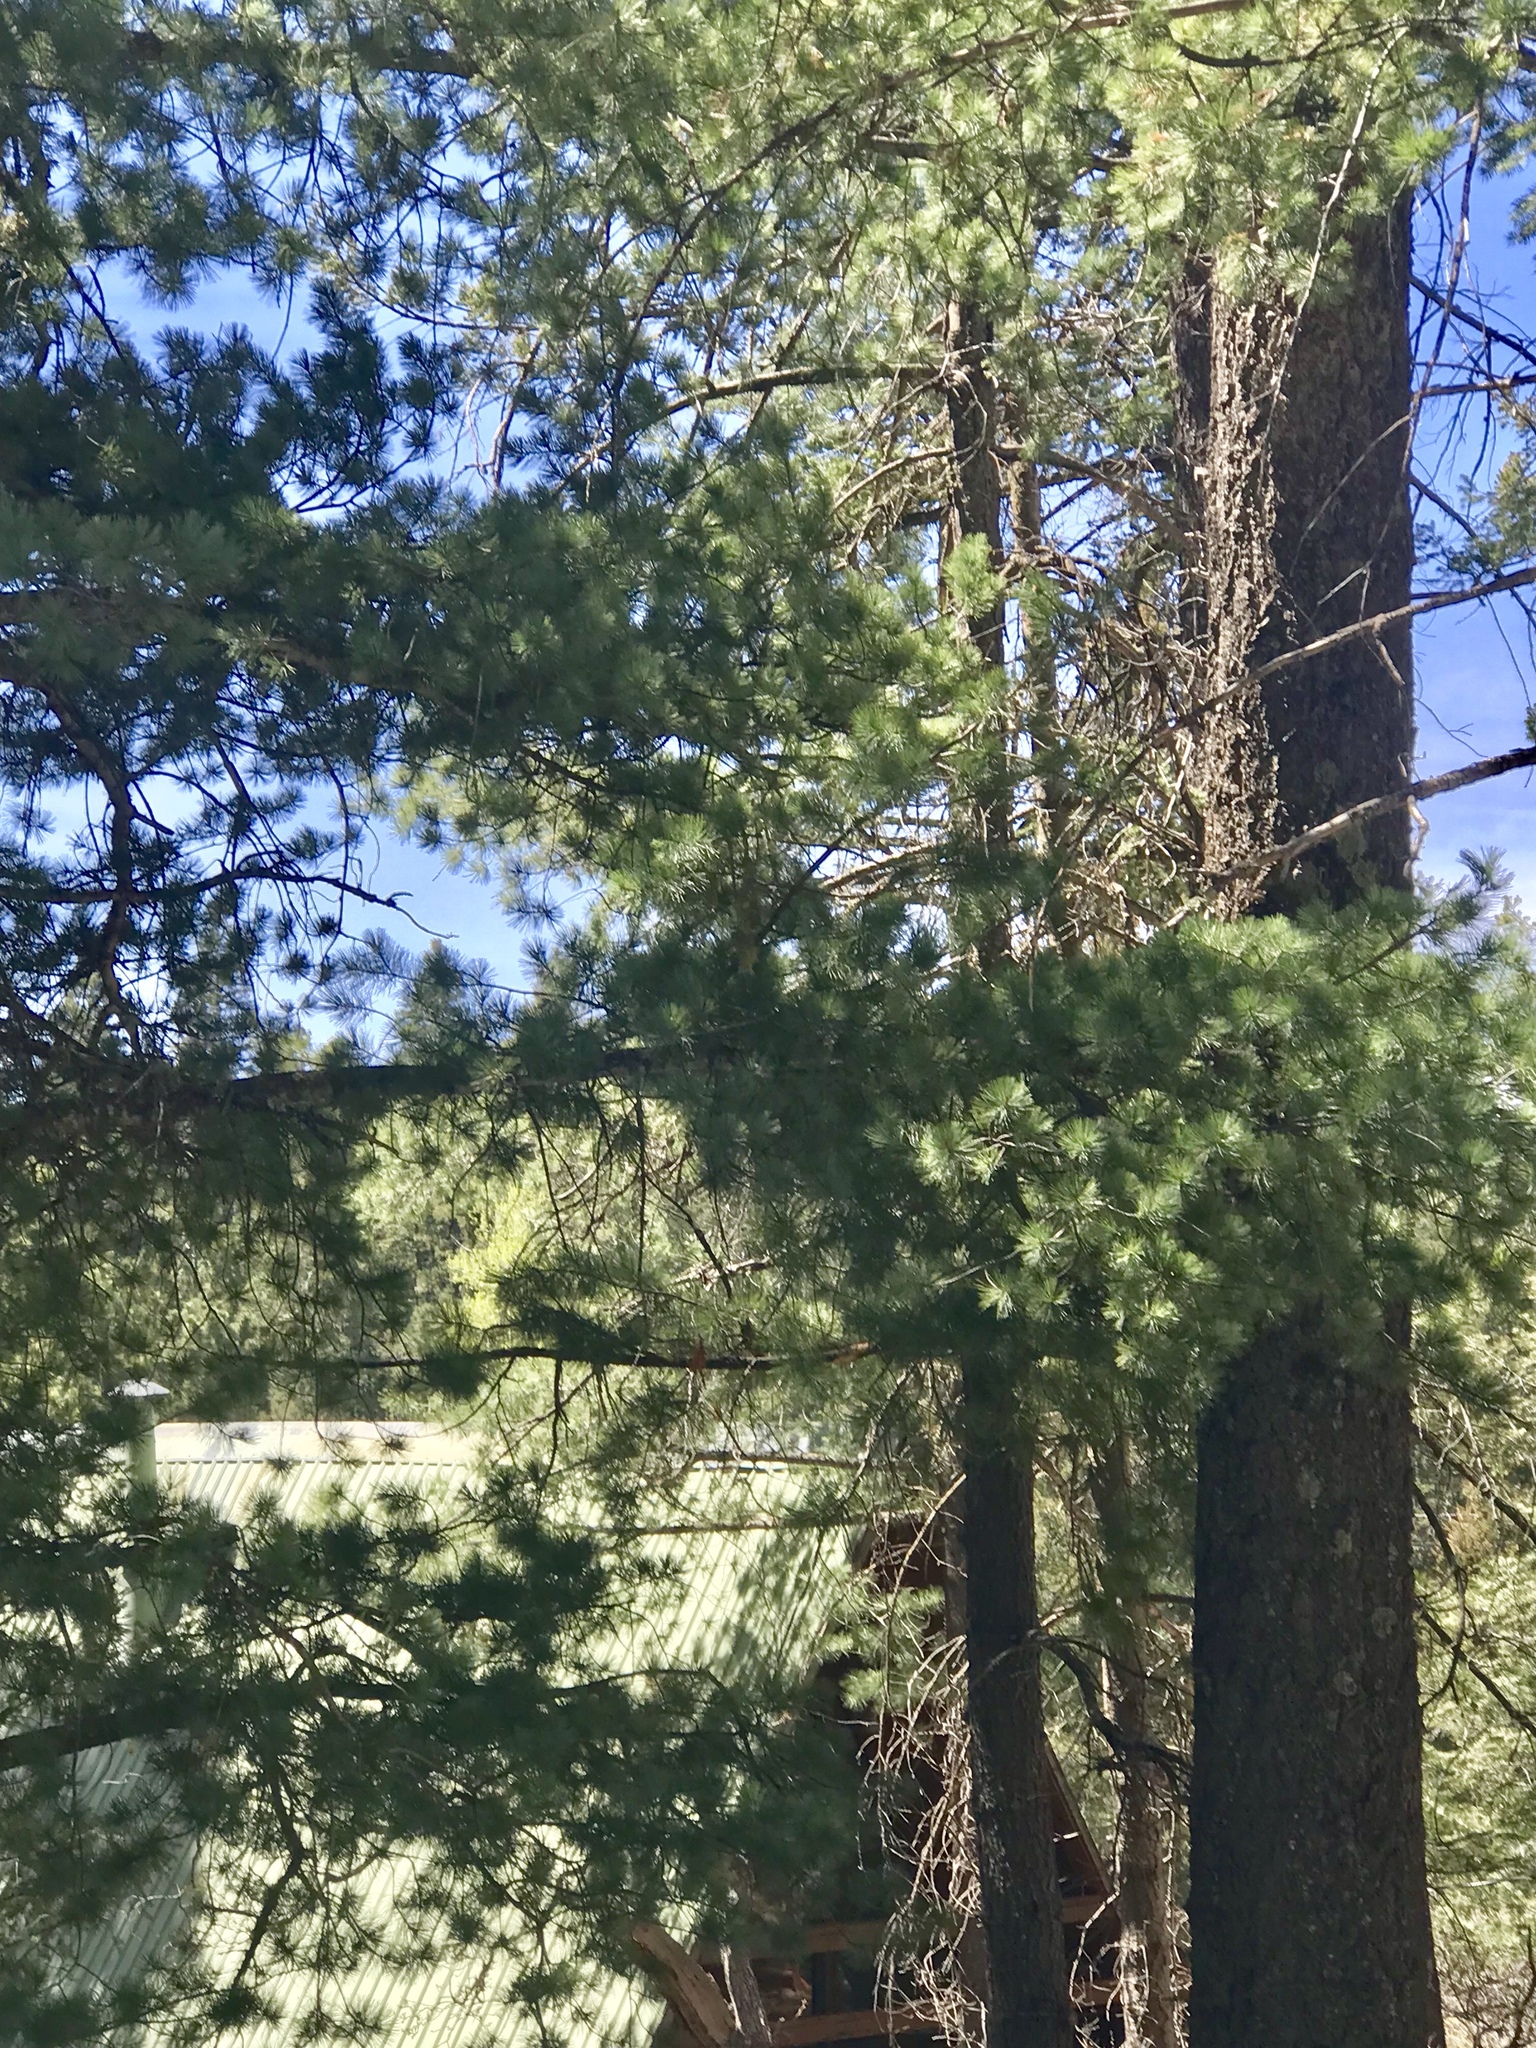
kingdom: Plantae
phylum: Tracheophyta
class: Pinopsida
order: Pinales
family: Pinaceae
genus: Pinus
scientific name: Pinus strobiformis
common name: Southwestern white pine
